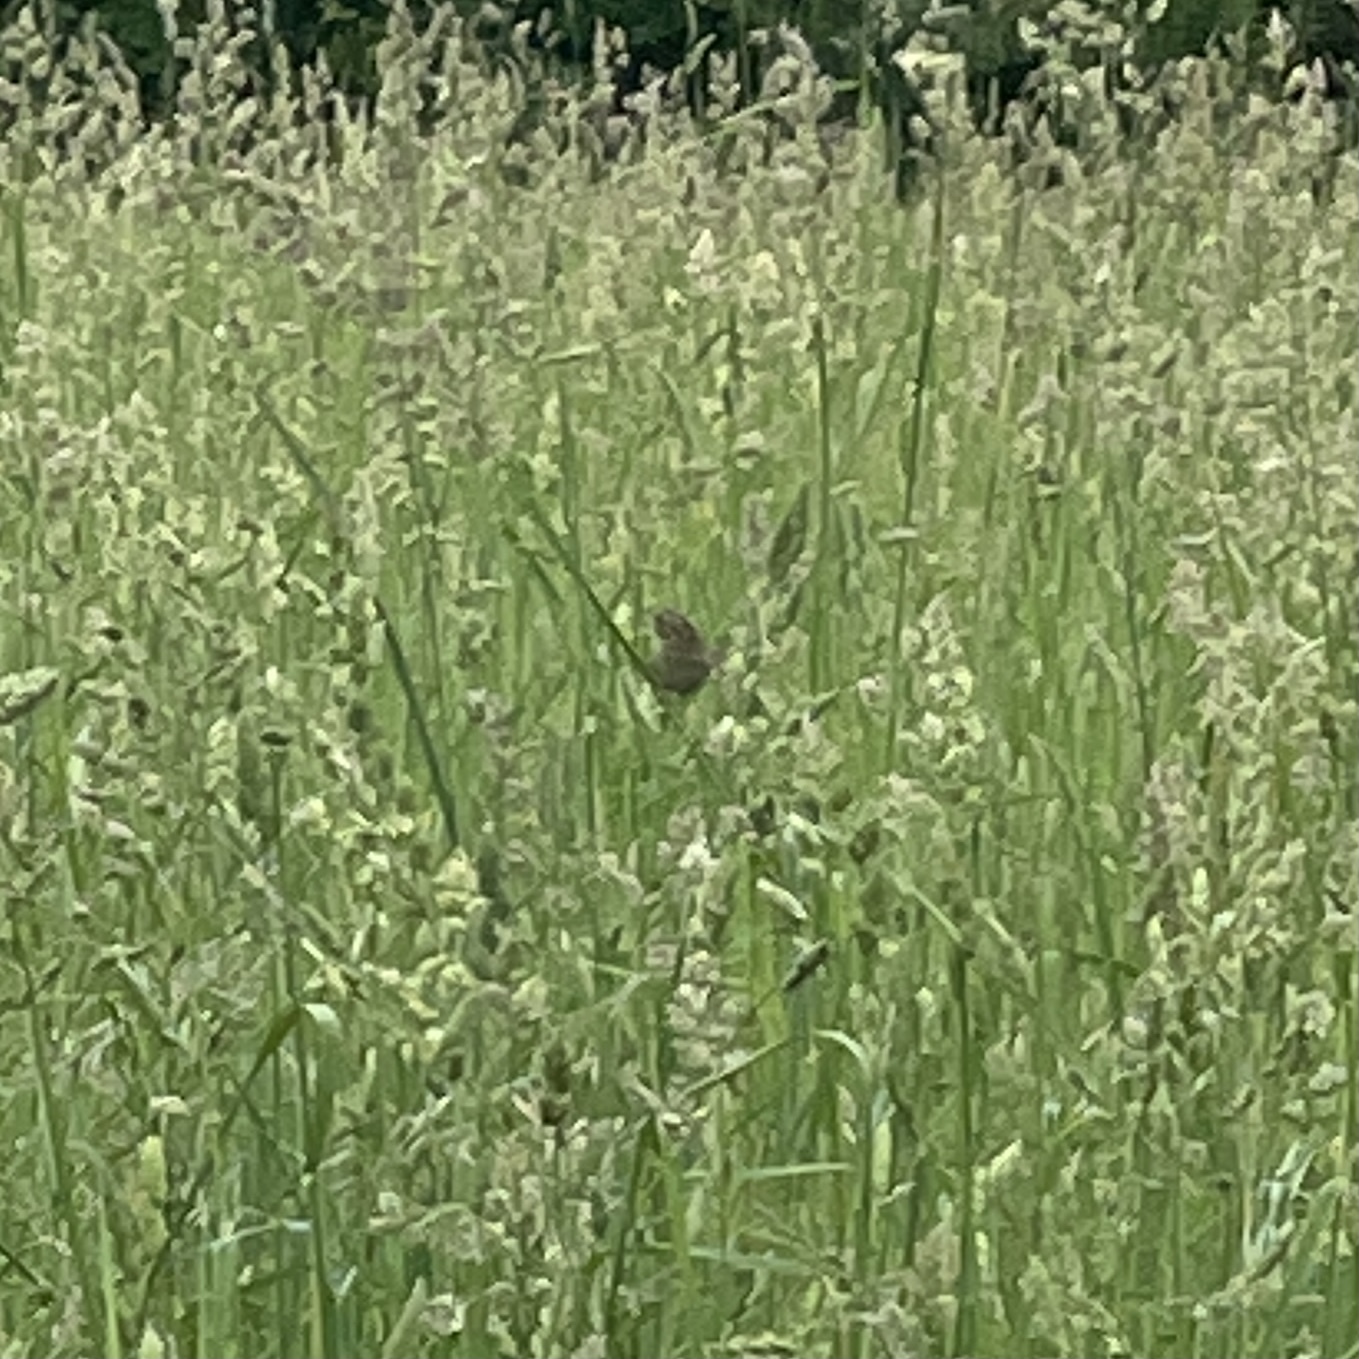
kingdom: Animalia
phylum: Chordata
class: Aves
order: Passeriformes
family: Passerellidae
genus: Centronyx
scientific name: Centronyx henslowii
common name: Henslow's sparrow
